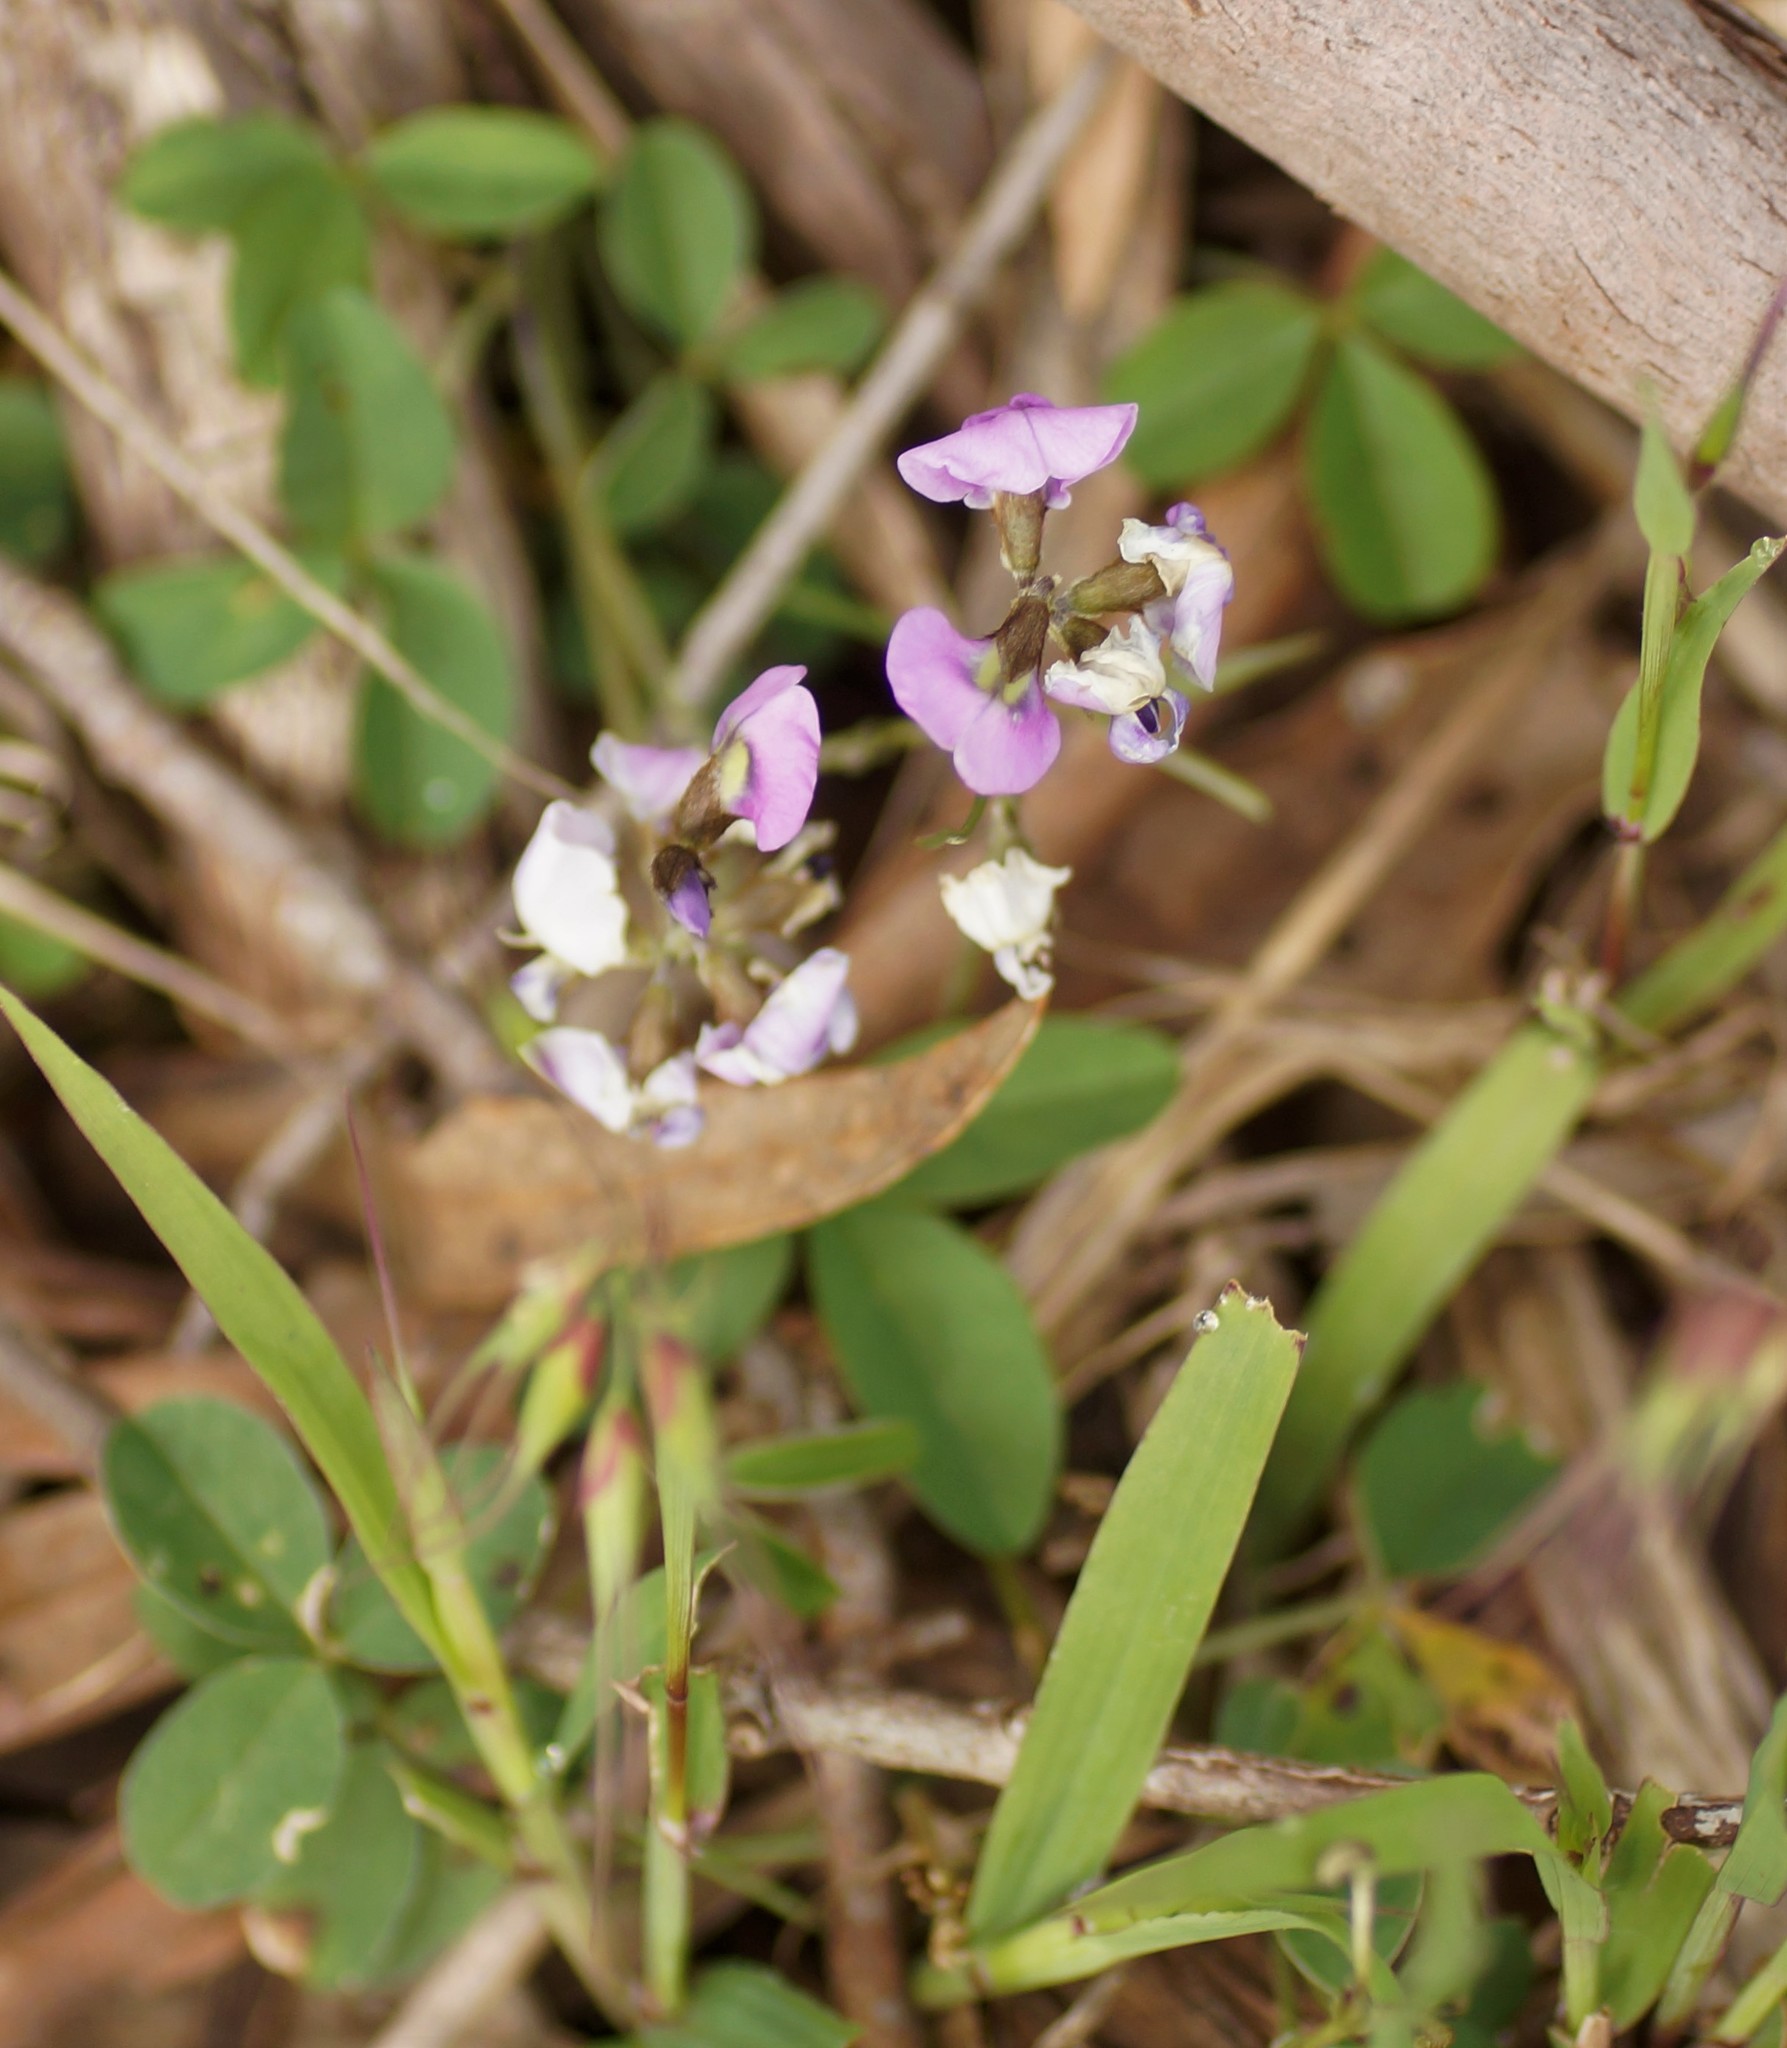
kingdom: Plantae
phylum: Tracheophyta
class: Magnoliopsida
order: Fabales
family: Fabaceae
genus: Glycine
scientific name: Glycine latrobeana
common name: Clover glycine
